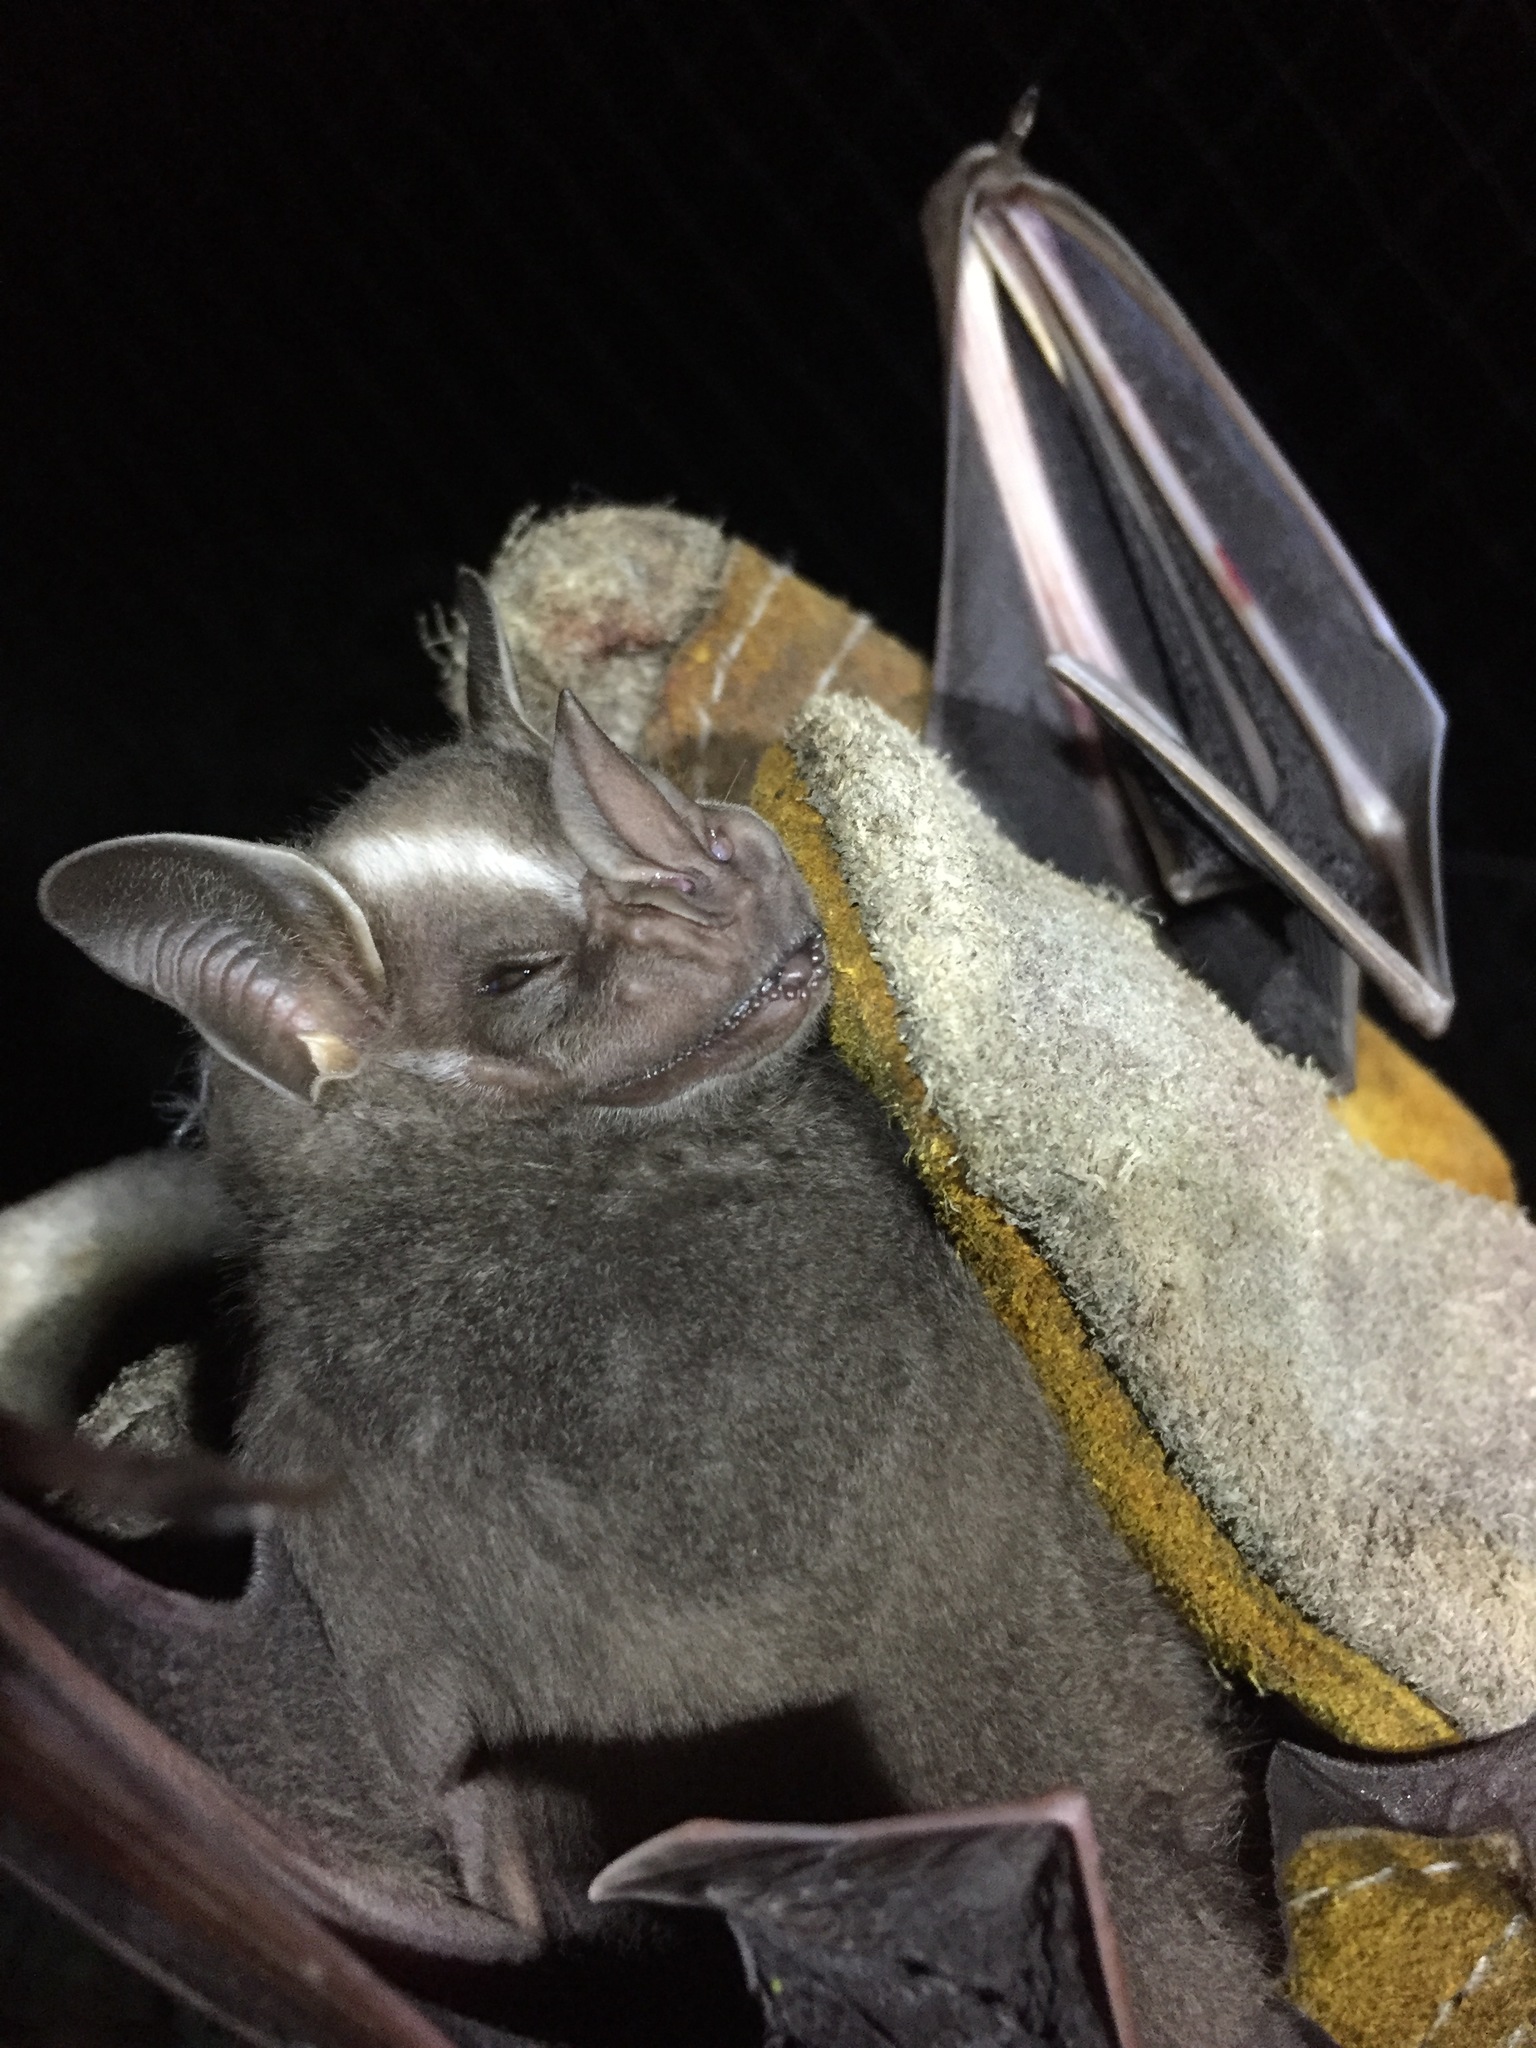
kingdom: Animalia
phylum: Chordata
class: Mammalia
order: Chiroptera
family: Phyllostomidae
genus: Artibeus
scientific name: Artibeus lituratus
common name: Great fruit-eating bat
